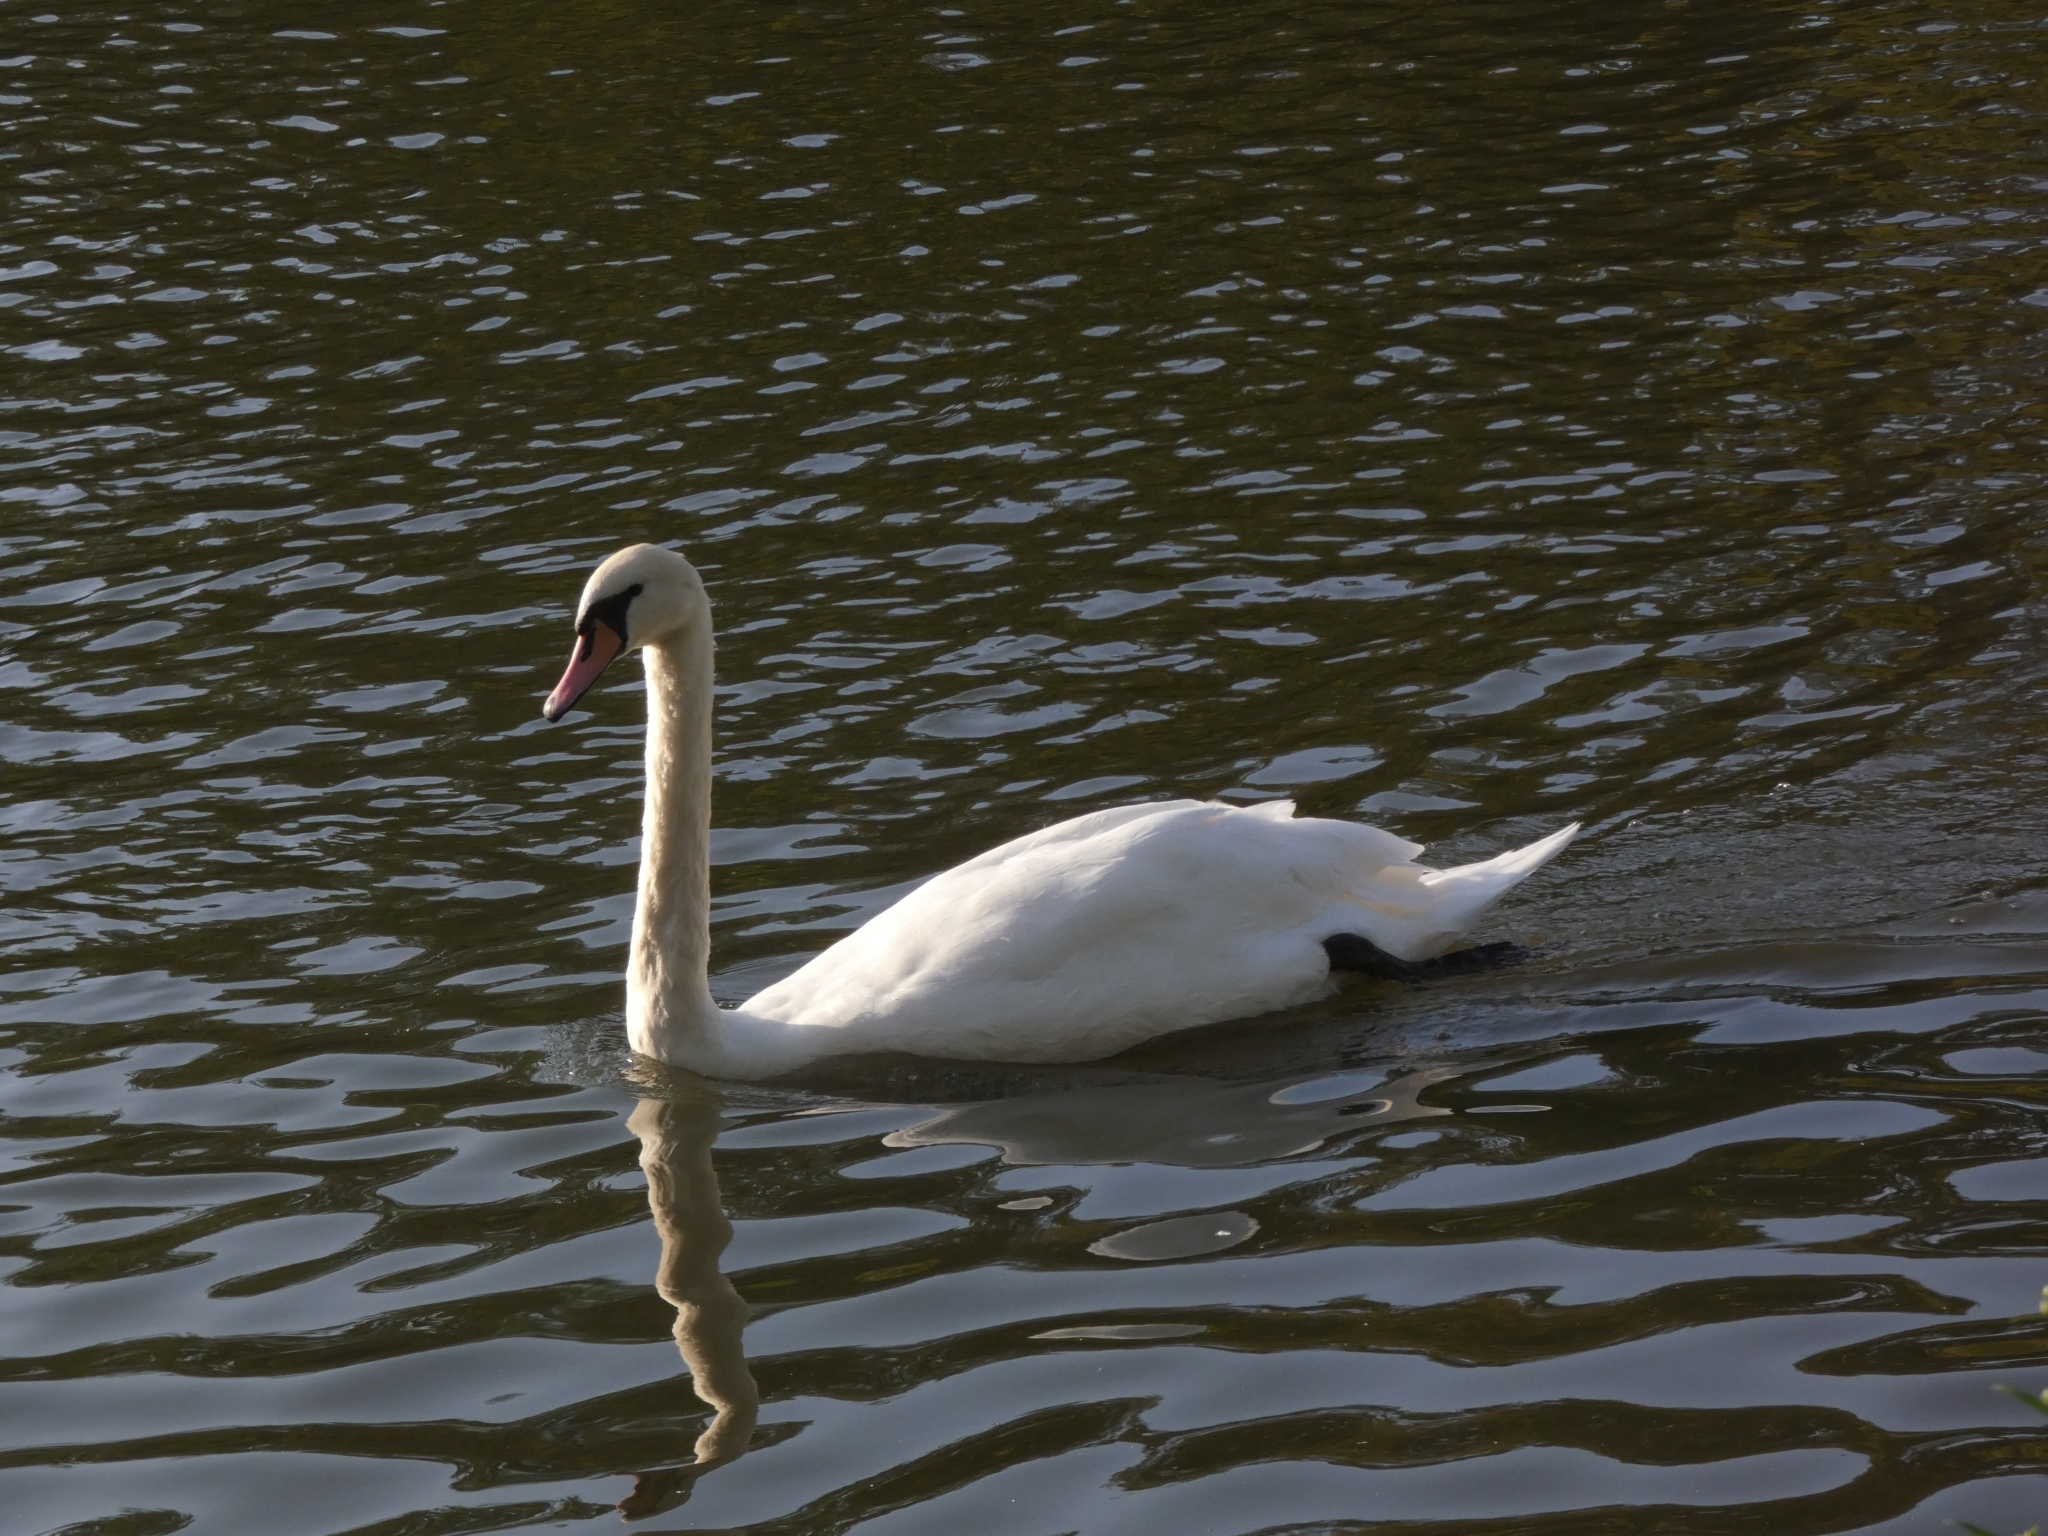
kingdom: Animalia
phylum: Chordata
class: Aves
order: Anseriformes
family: Anatidae
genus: Cygnus
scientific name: Cygnus olor
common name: Mute swan
